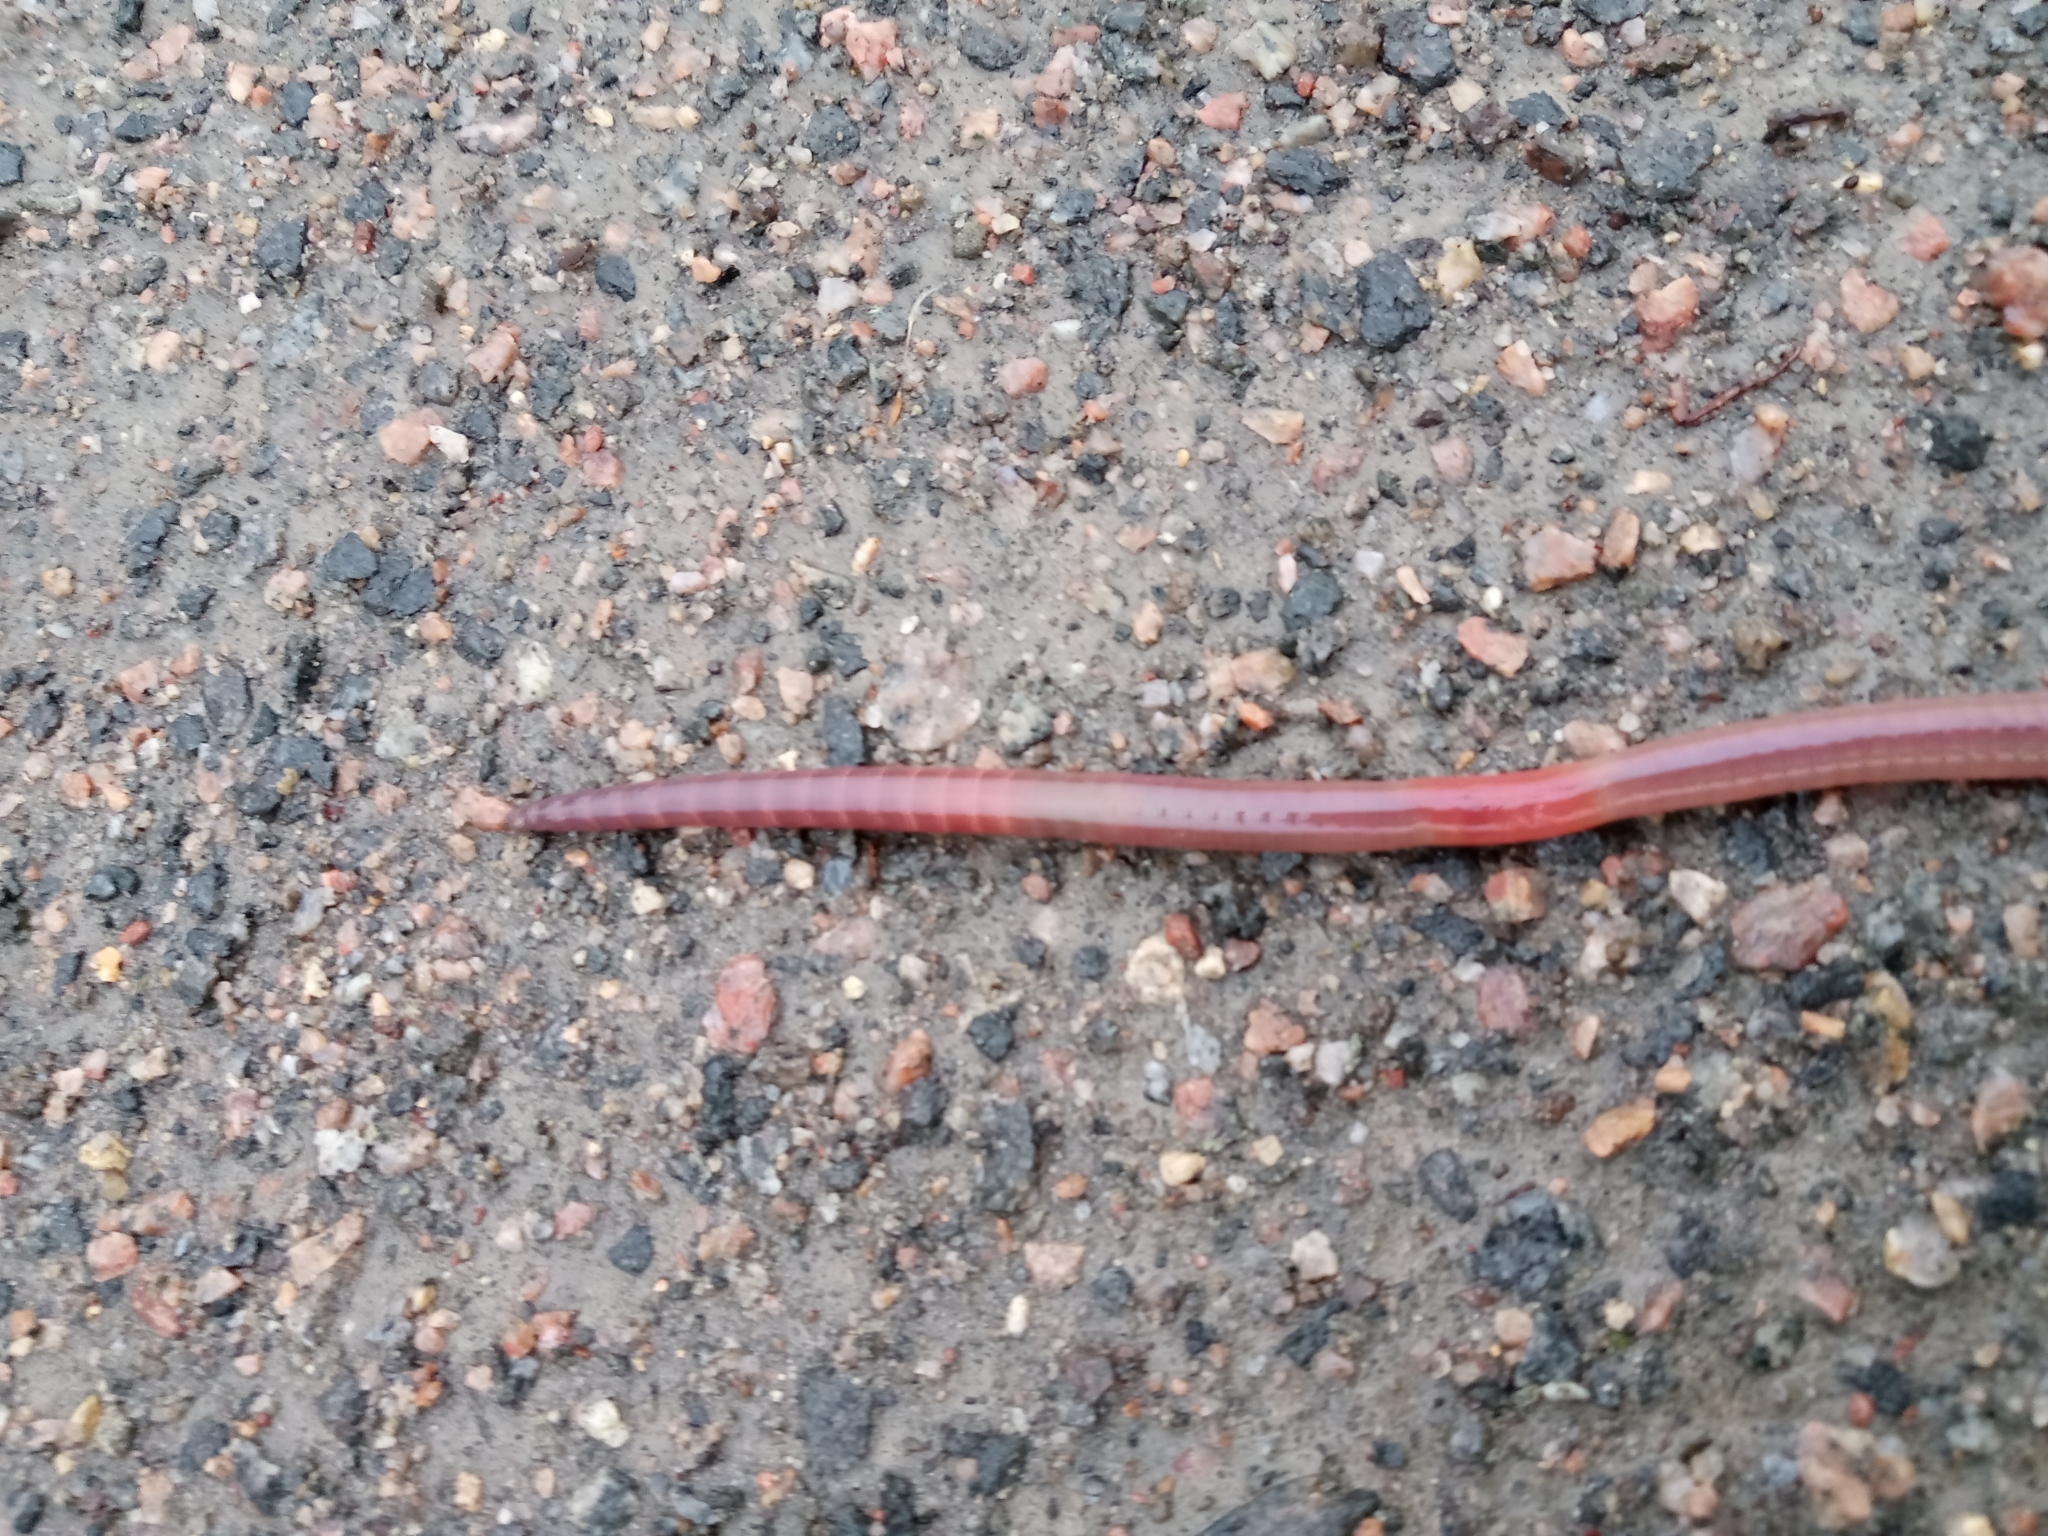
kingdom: Animalia
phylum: Annelida
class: Clitellata
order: Crassiclitellata
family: Lumbricidae
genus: Lumbricus
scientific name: Lumbricus terrestris
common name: Common earthworm
